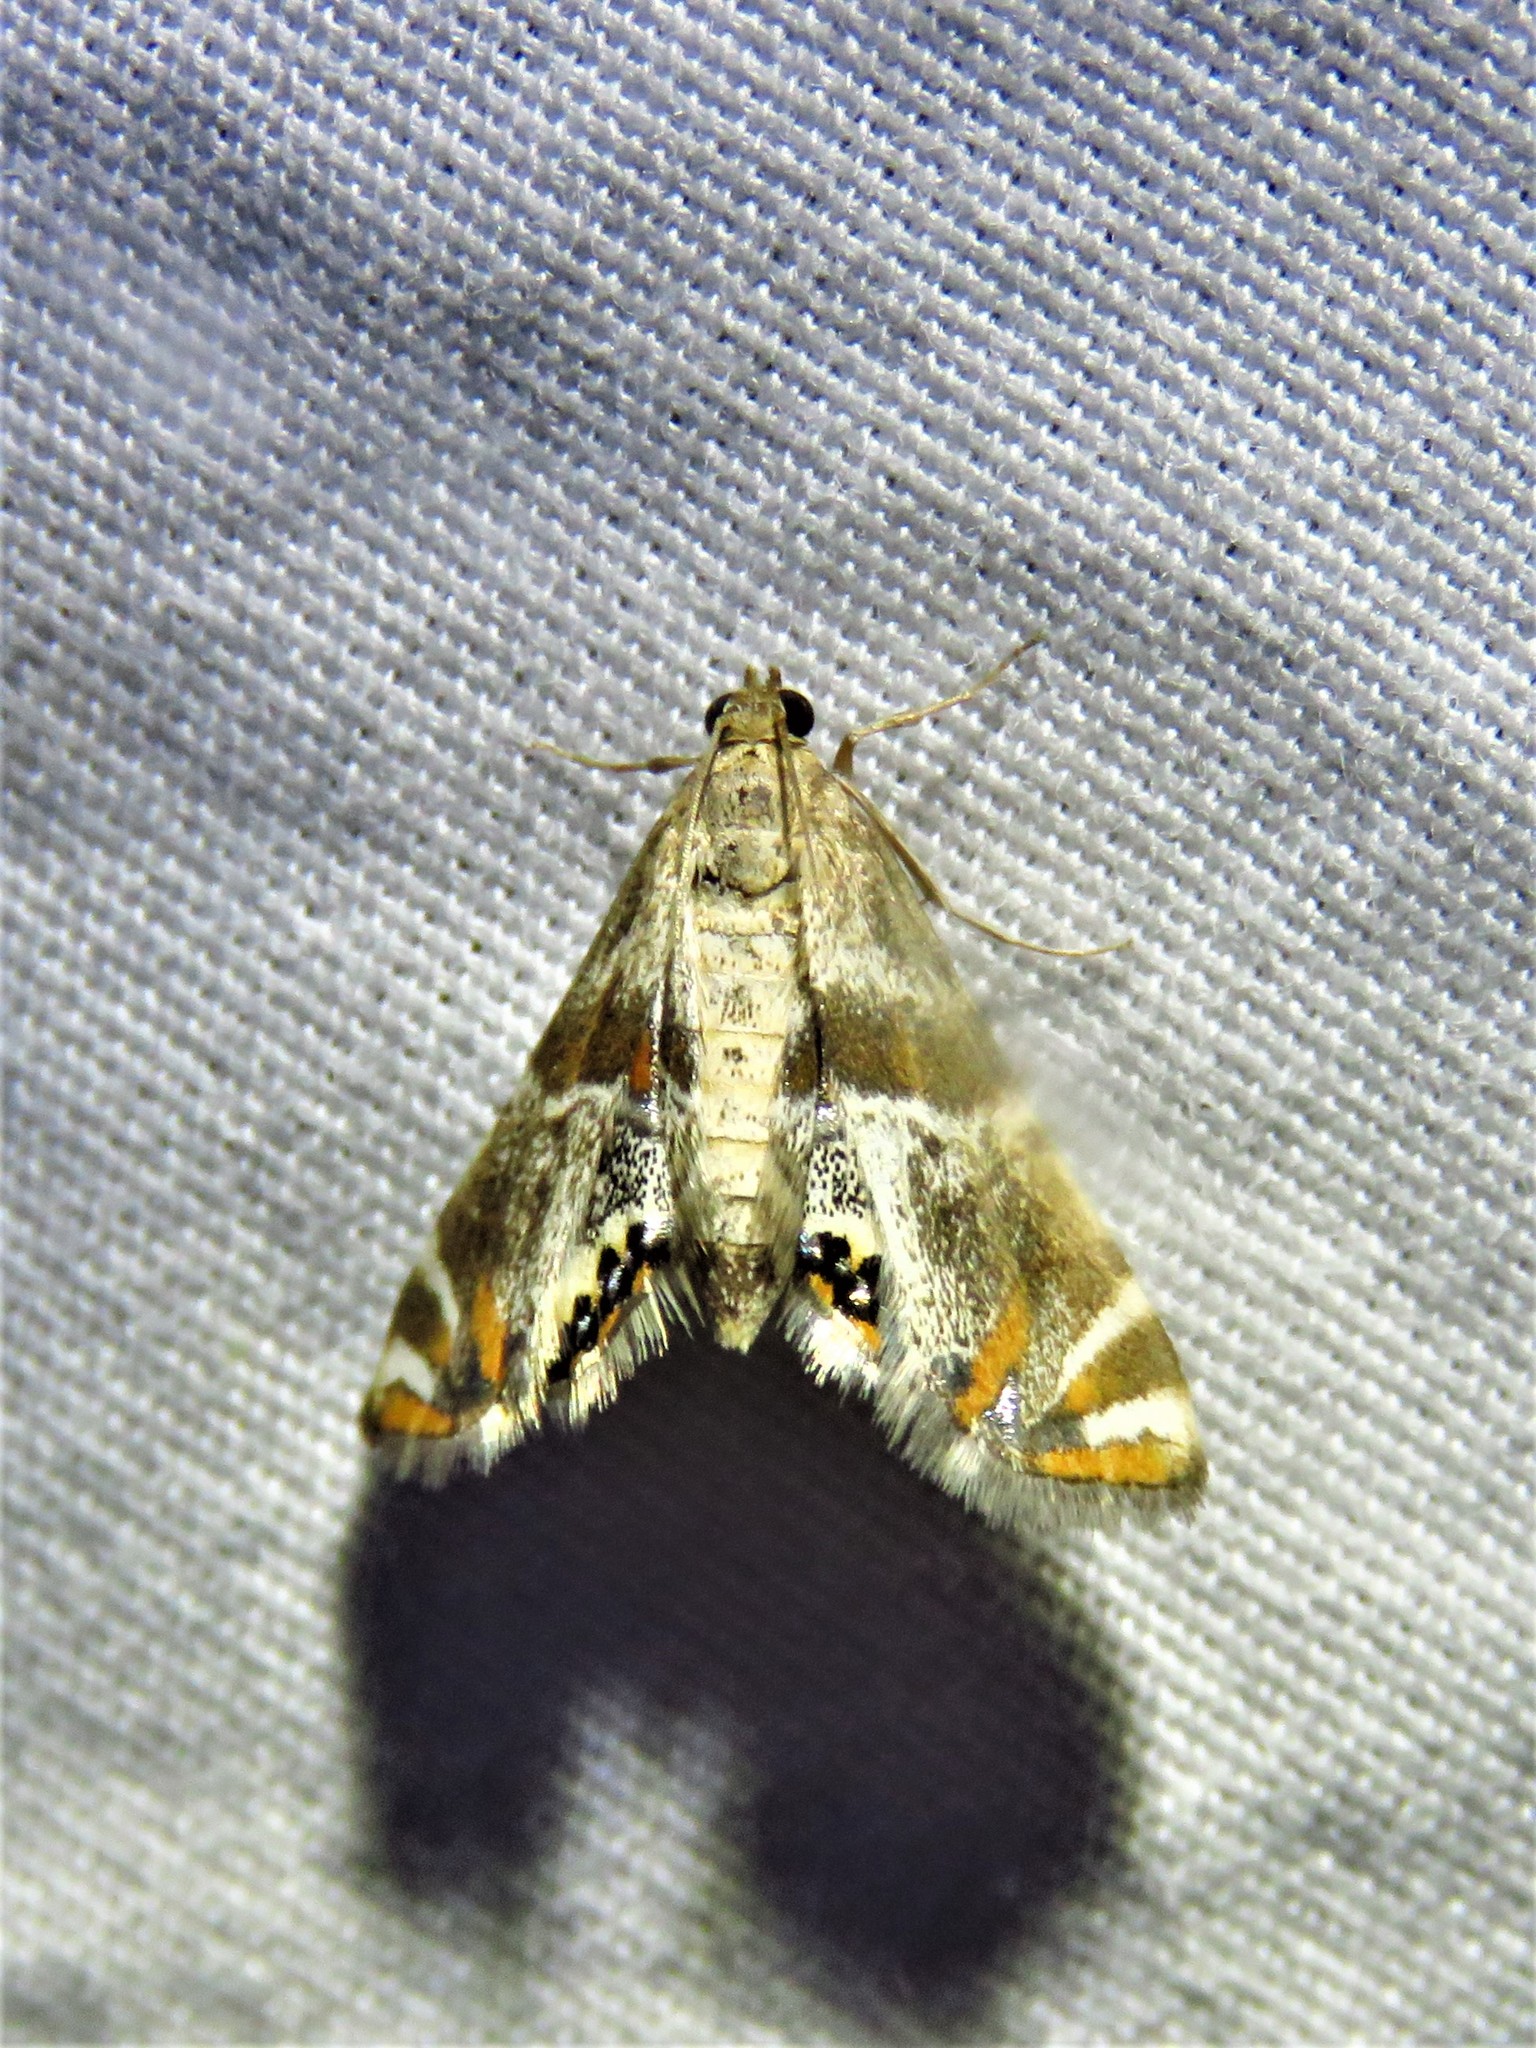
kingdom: Animalia
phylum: Arthropoda
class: Insecta
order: Lepidoptera
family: Crambidae
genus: Petrophila
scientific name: Petrophila jaliscalis
